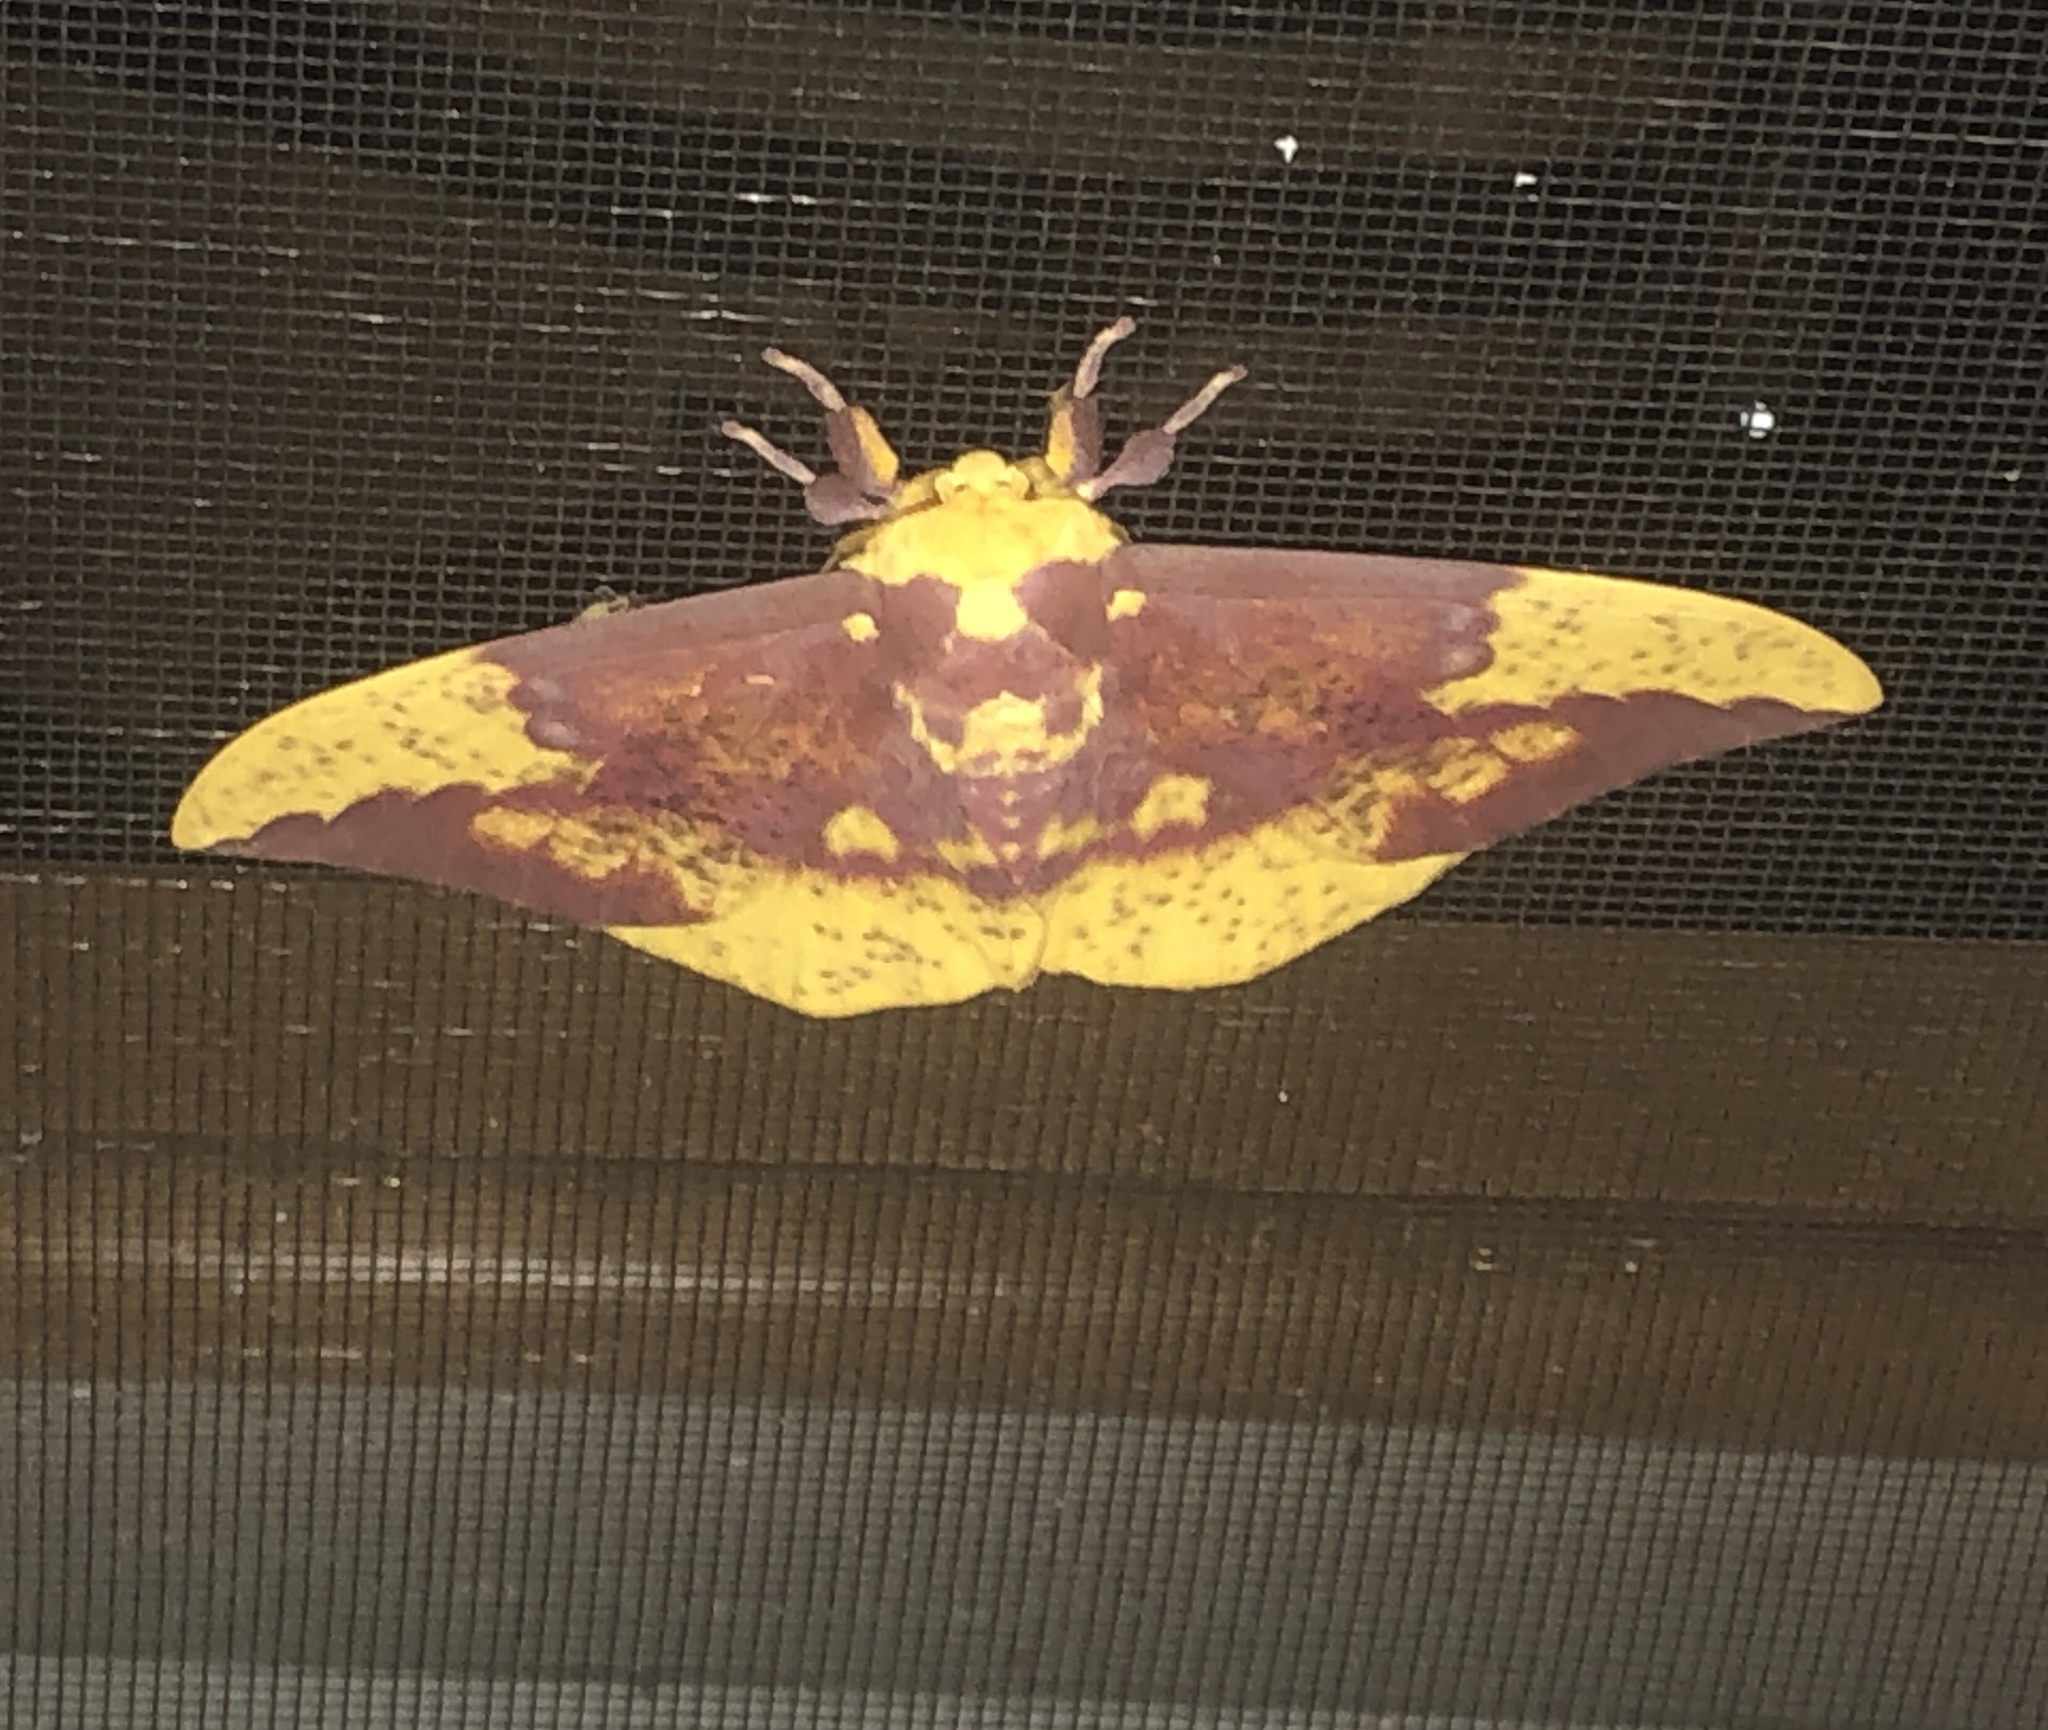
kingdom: Animalia
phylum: Arthropoda
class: Insecta
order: Lepidoptera
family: Saturniidae
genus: Eacles
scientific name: Eacles imperialis
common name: Imperial moth
